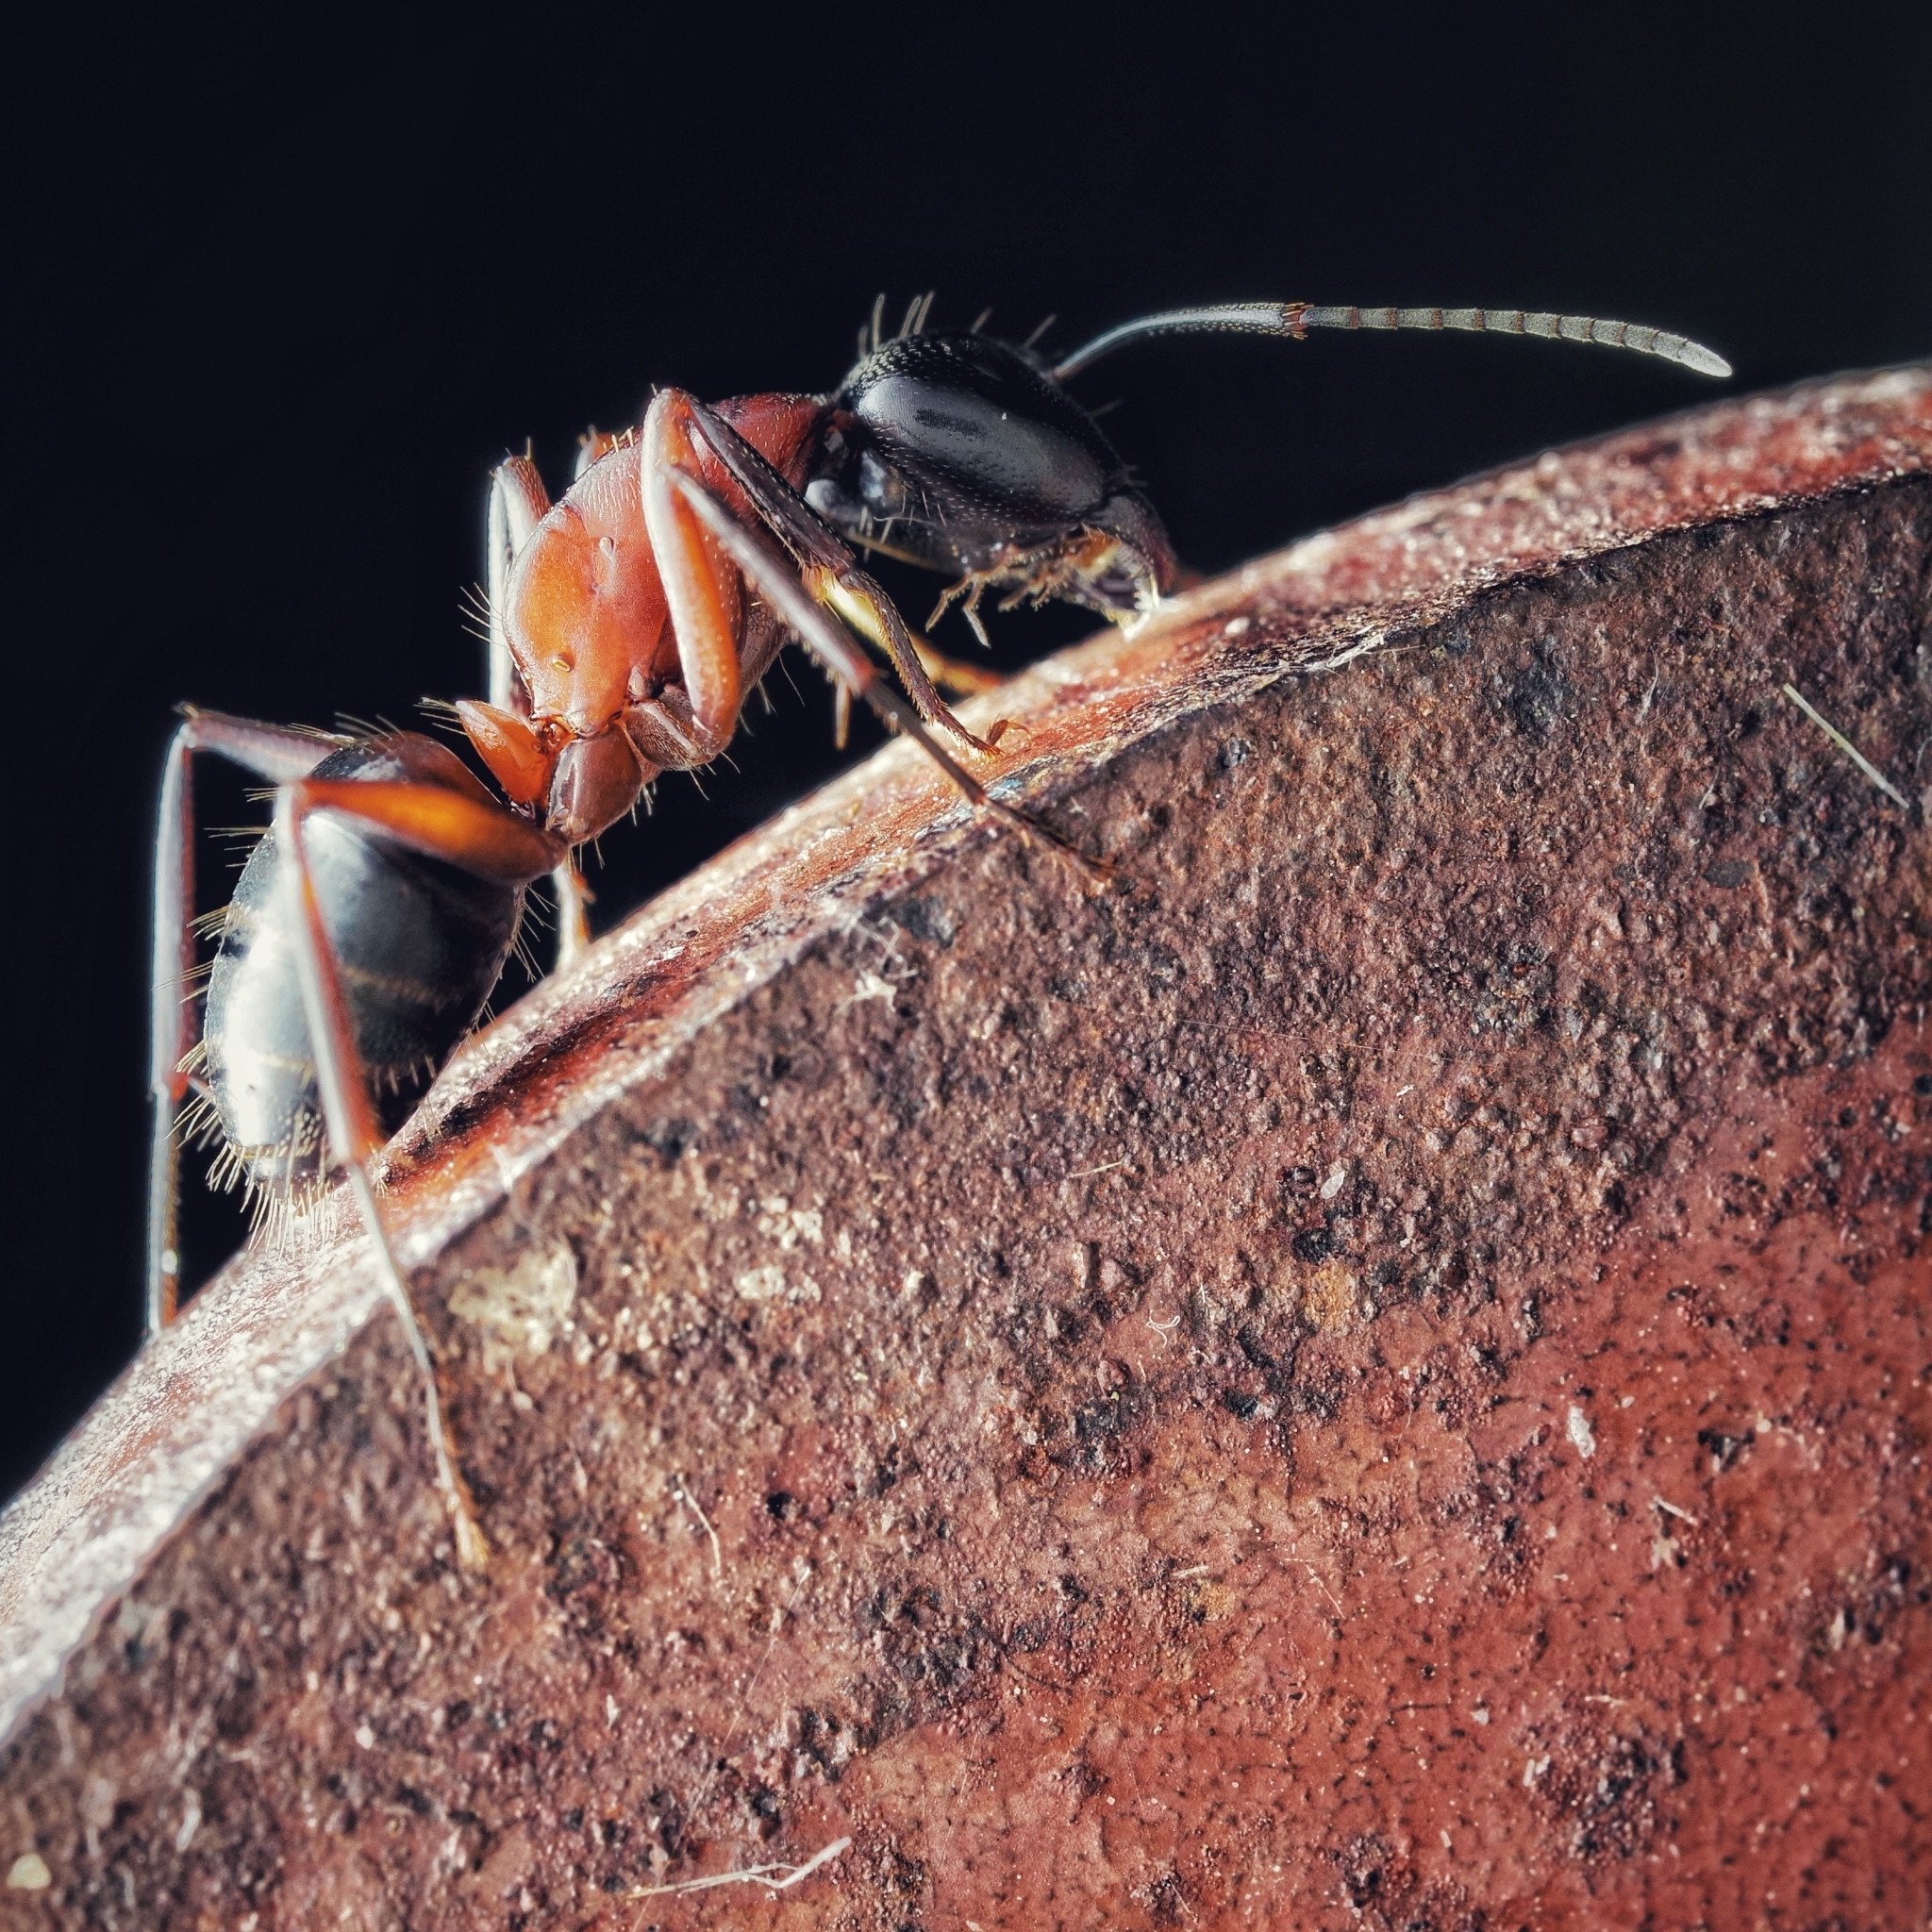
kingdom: Animalia
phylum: Arthropoda
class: Insecta
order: Hymenoptera
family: Formicidae
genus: Camponotus
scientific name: Camponotus ligniperdus
